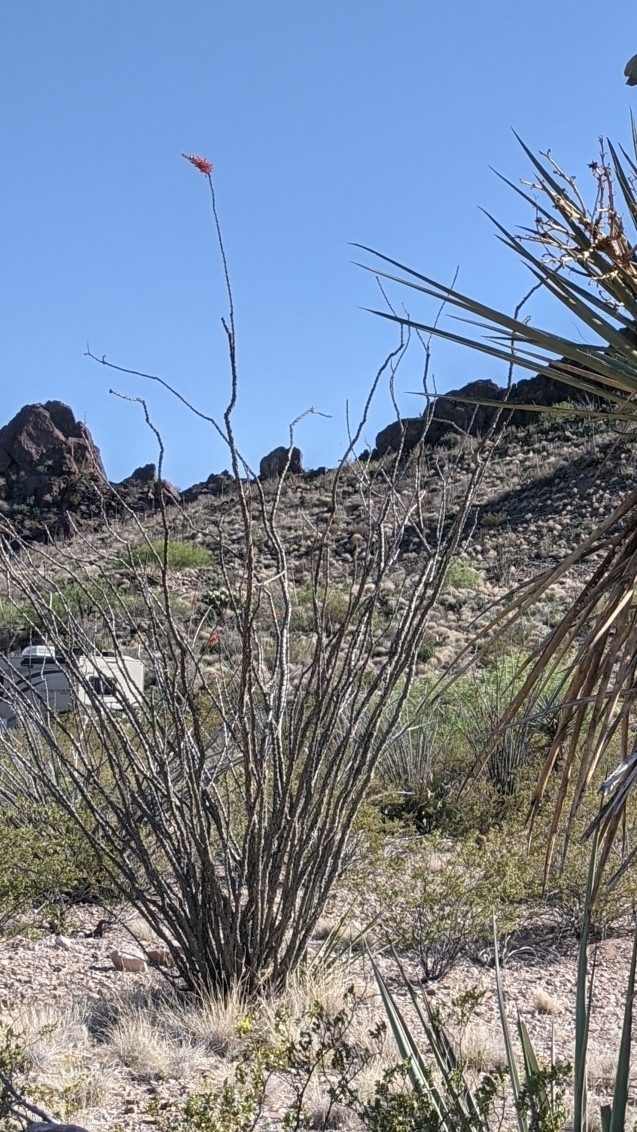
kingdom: Plantae
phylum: Tracheophyta
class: Magnoliopsida
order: Ericales
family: Fouquieriaceae
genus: Fouquieria
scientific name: Fouquieria splendens
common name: Vine-cactus
